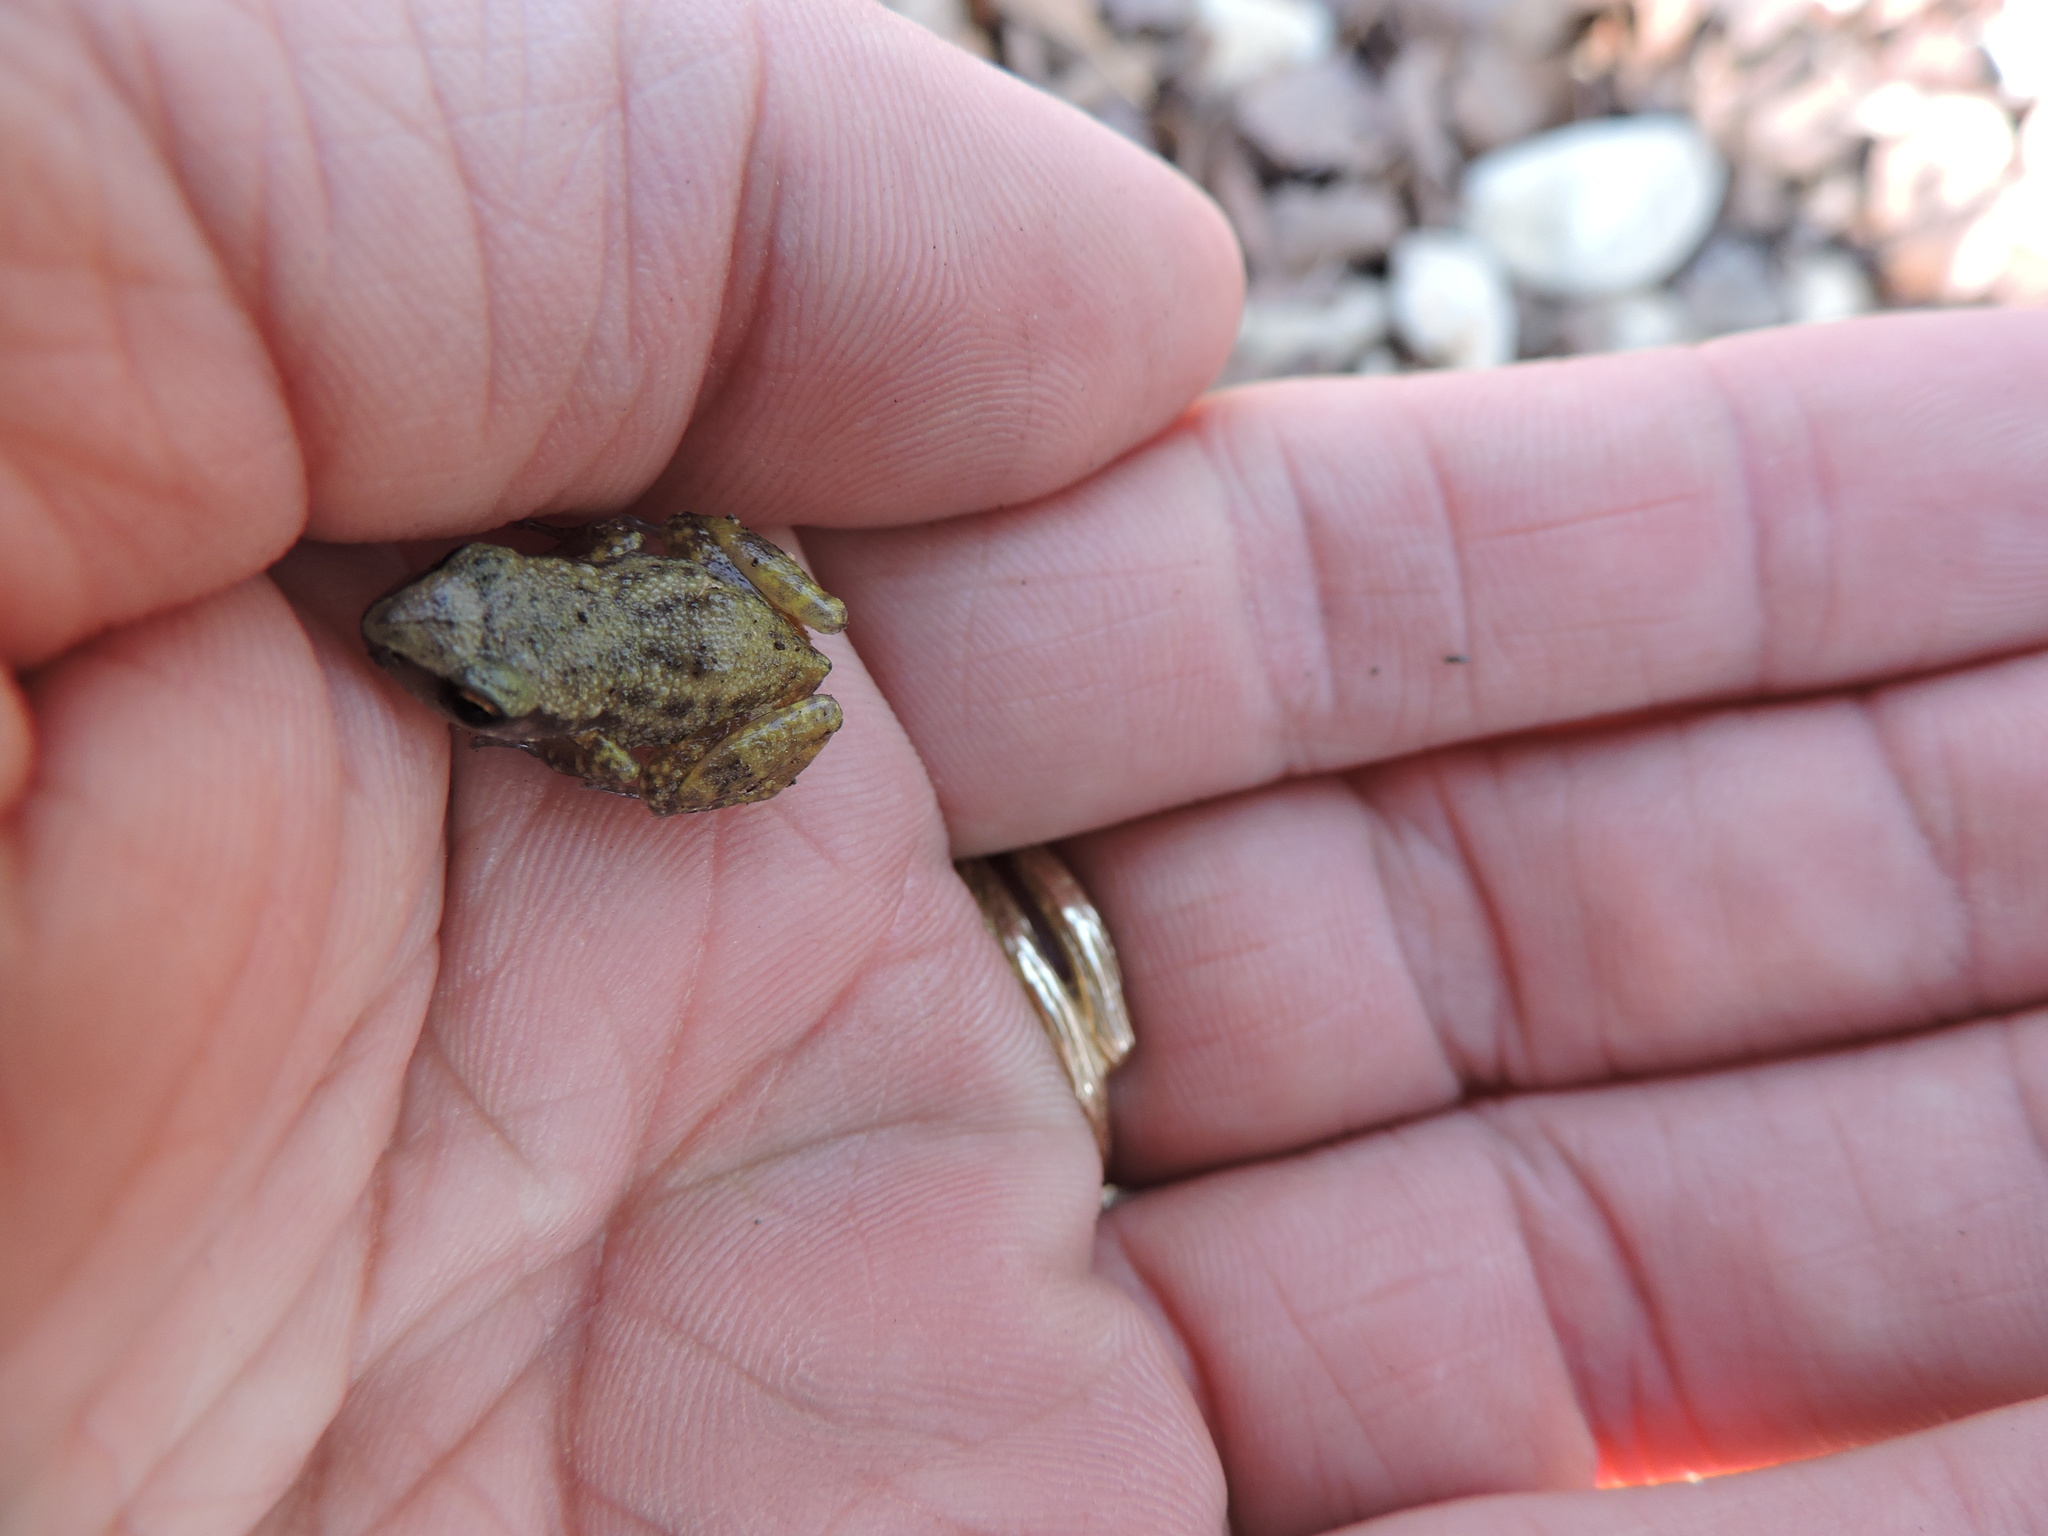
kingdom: Animalia
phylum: Chordata
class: Amphibia
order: Anura
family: Eleutherodactylidae
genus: Eleutherodactylus
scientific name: Eleutherodactylus campi
